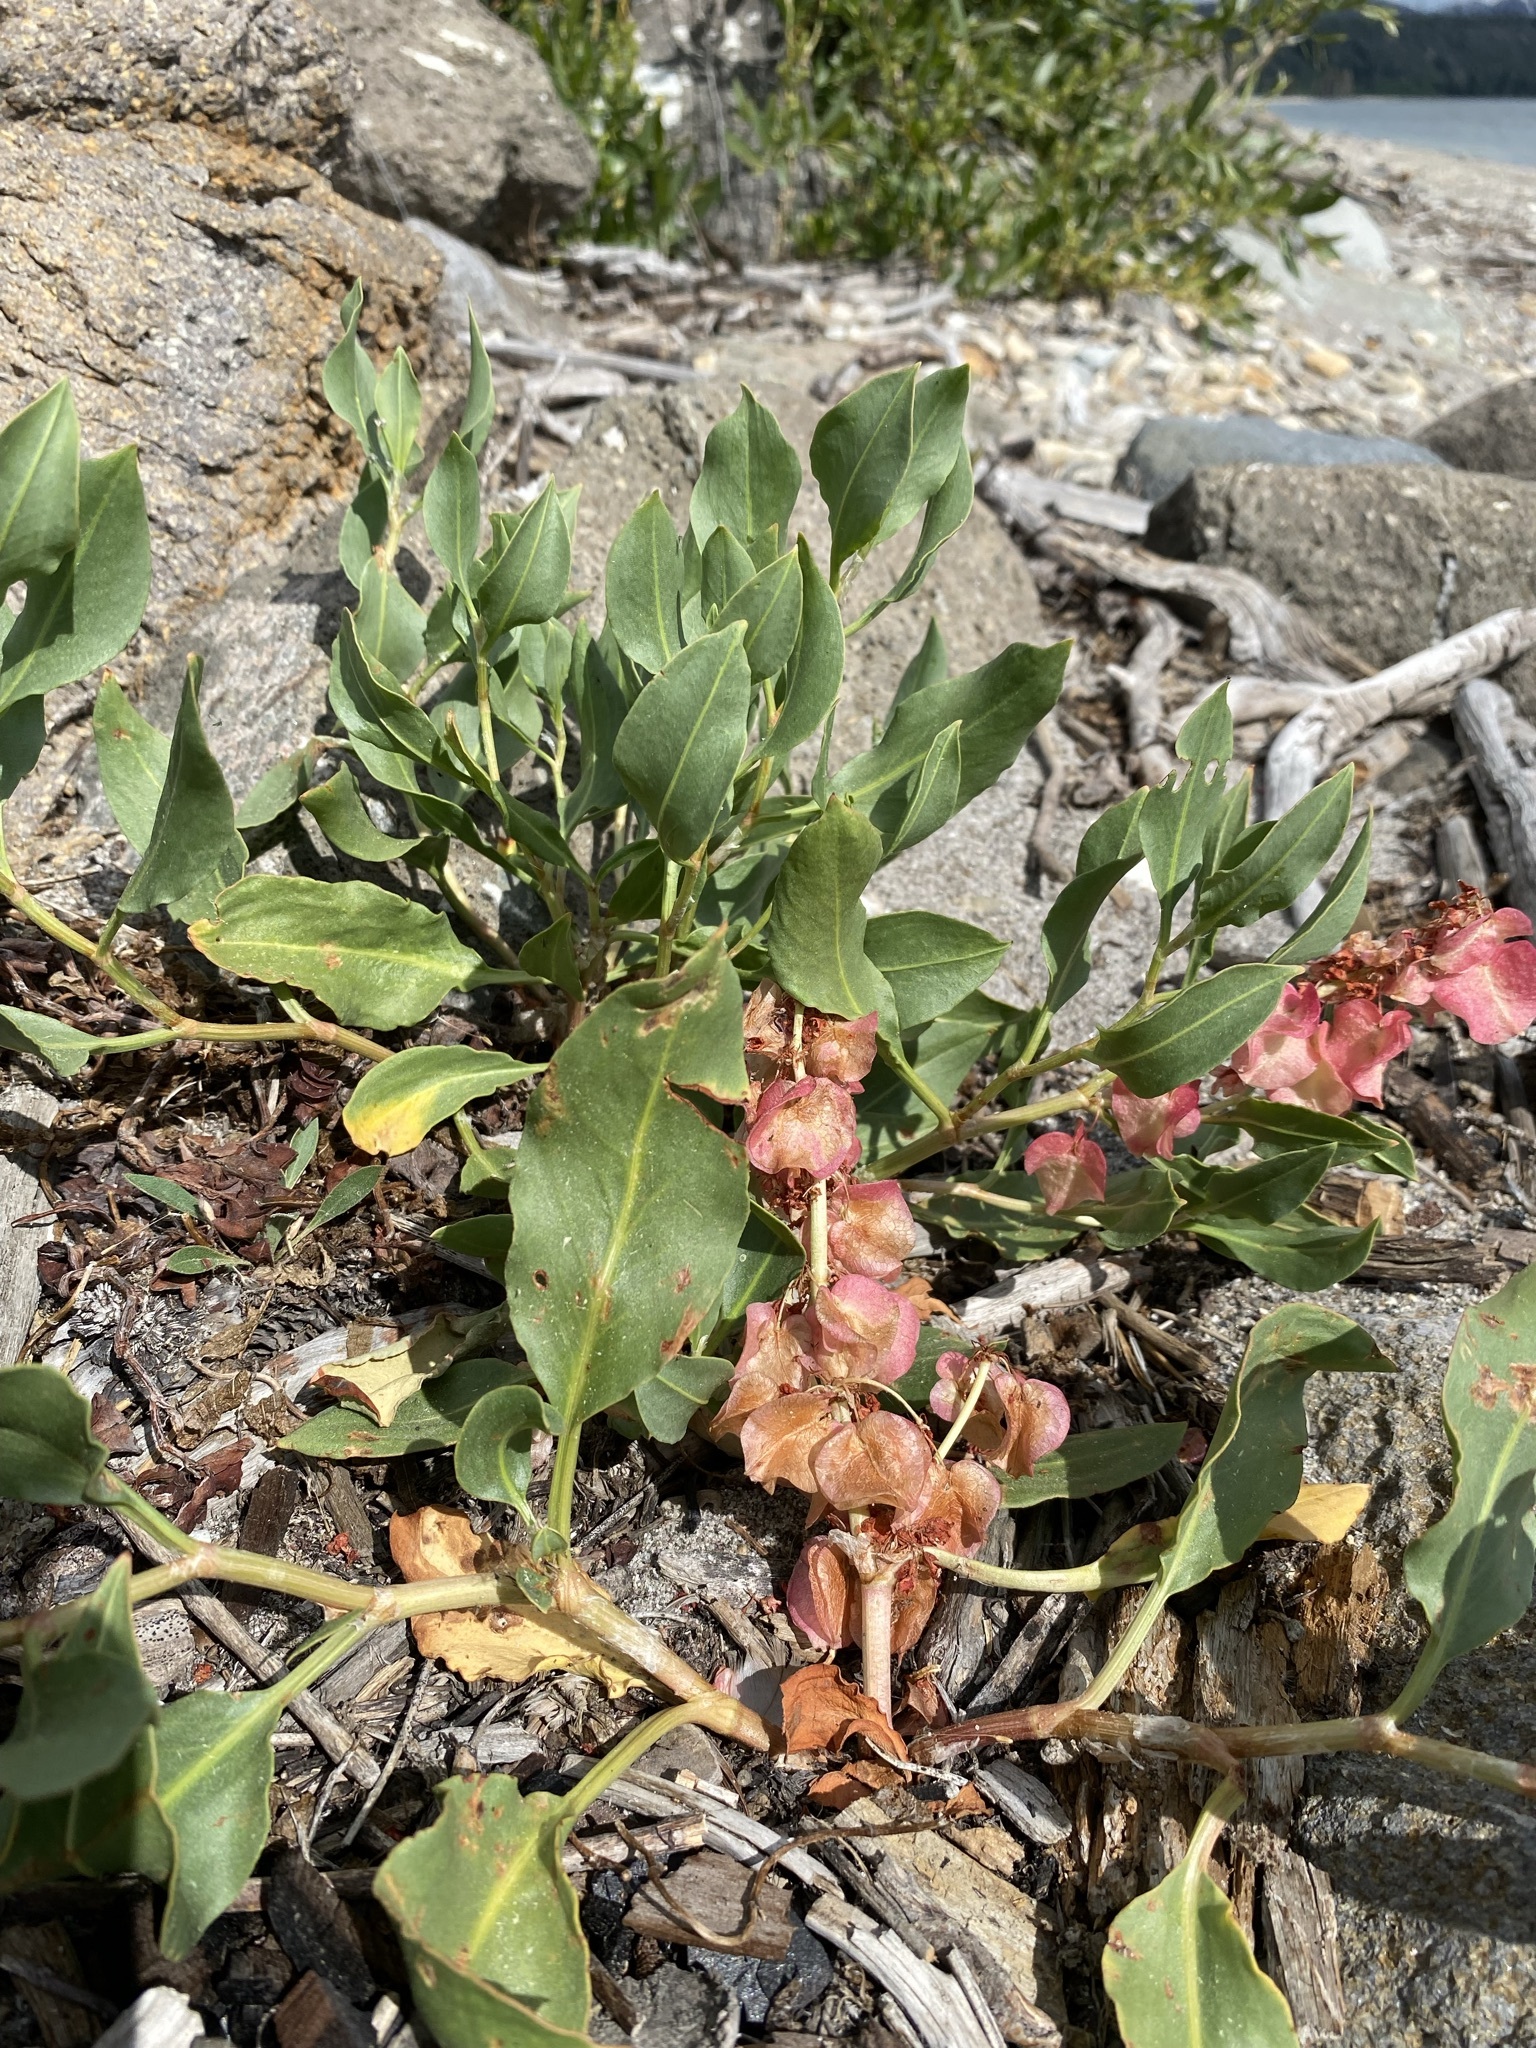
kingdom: Plantae
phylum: Tracheophyta
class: Magnoliopsida
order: Caryophyllales
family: Polygonaceae
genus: Rumex
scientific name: Rumex venosus
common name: Winged dock
